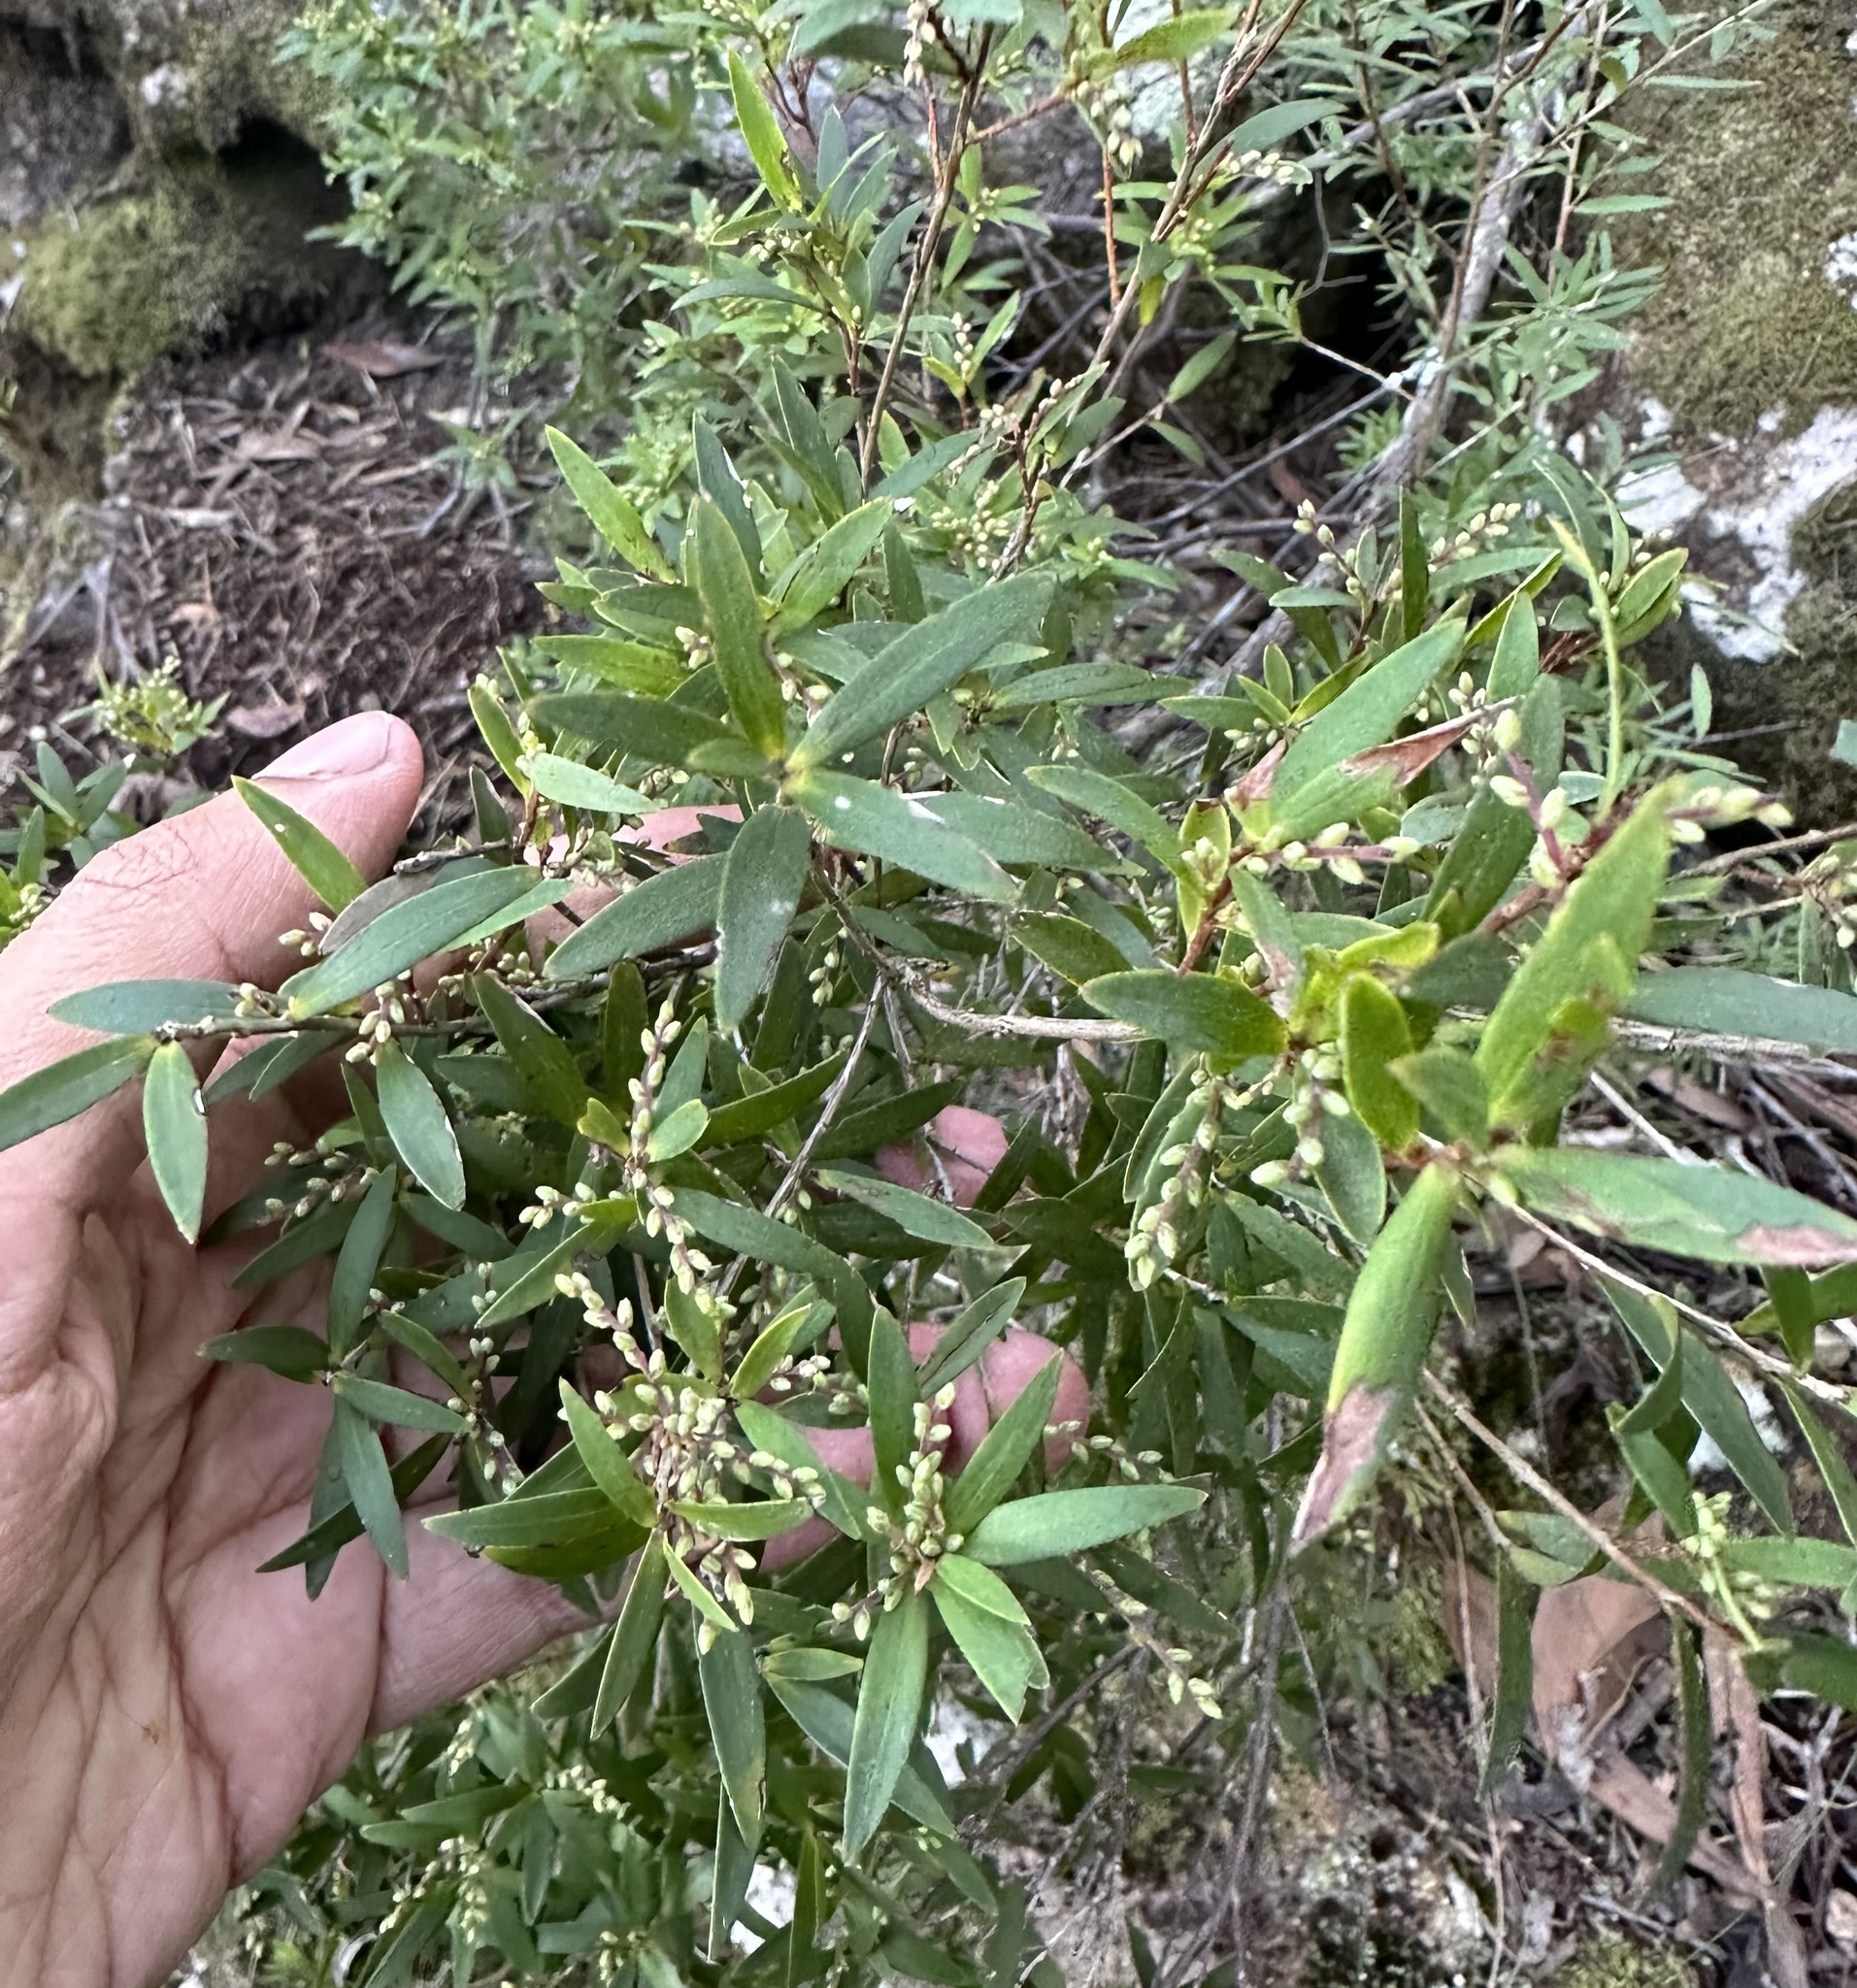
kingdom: Plantae
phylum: Tracheophyta
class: Magnoliopsida
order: Ericales
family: Ericaceae
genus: Leucopogon
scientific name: Leucopogon lanceolatus
